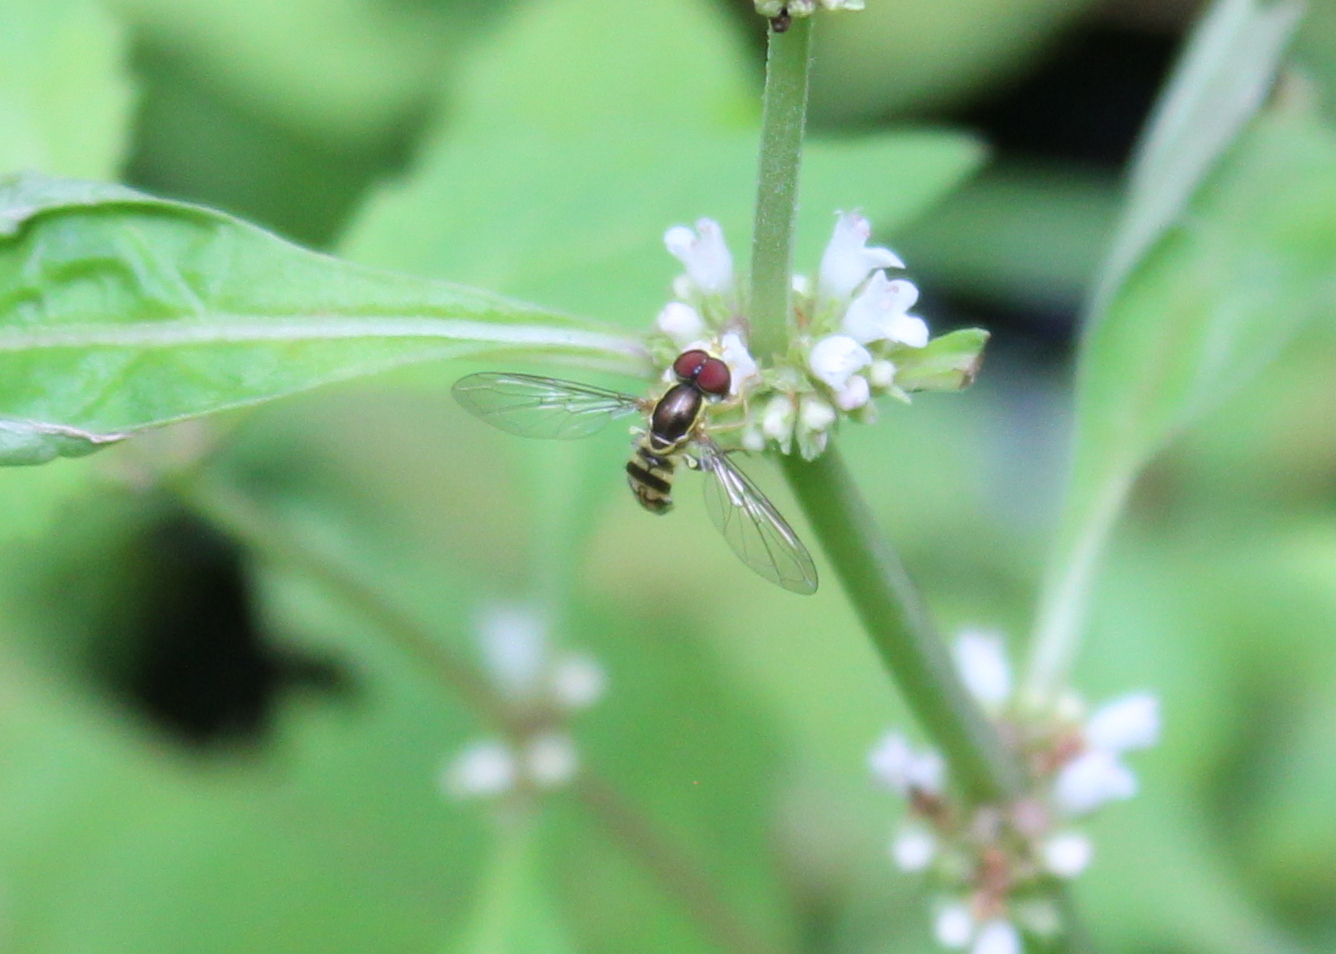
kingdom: Animalia
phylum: Arthropoda
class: Insecta
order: Diptera
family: Syrphidae
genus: Toxomerus
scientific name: Toxomerus geminatus
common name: Eastern calligrapher
